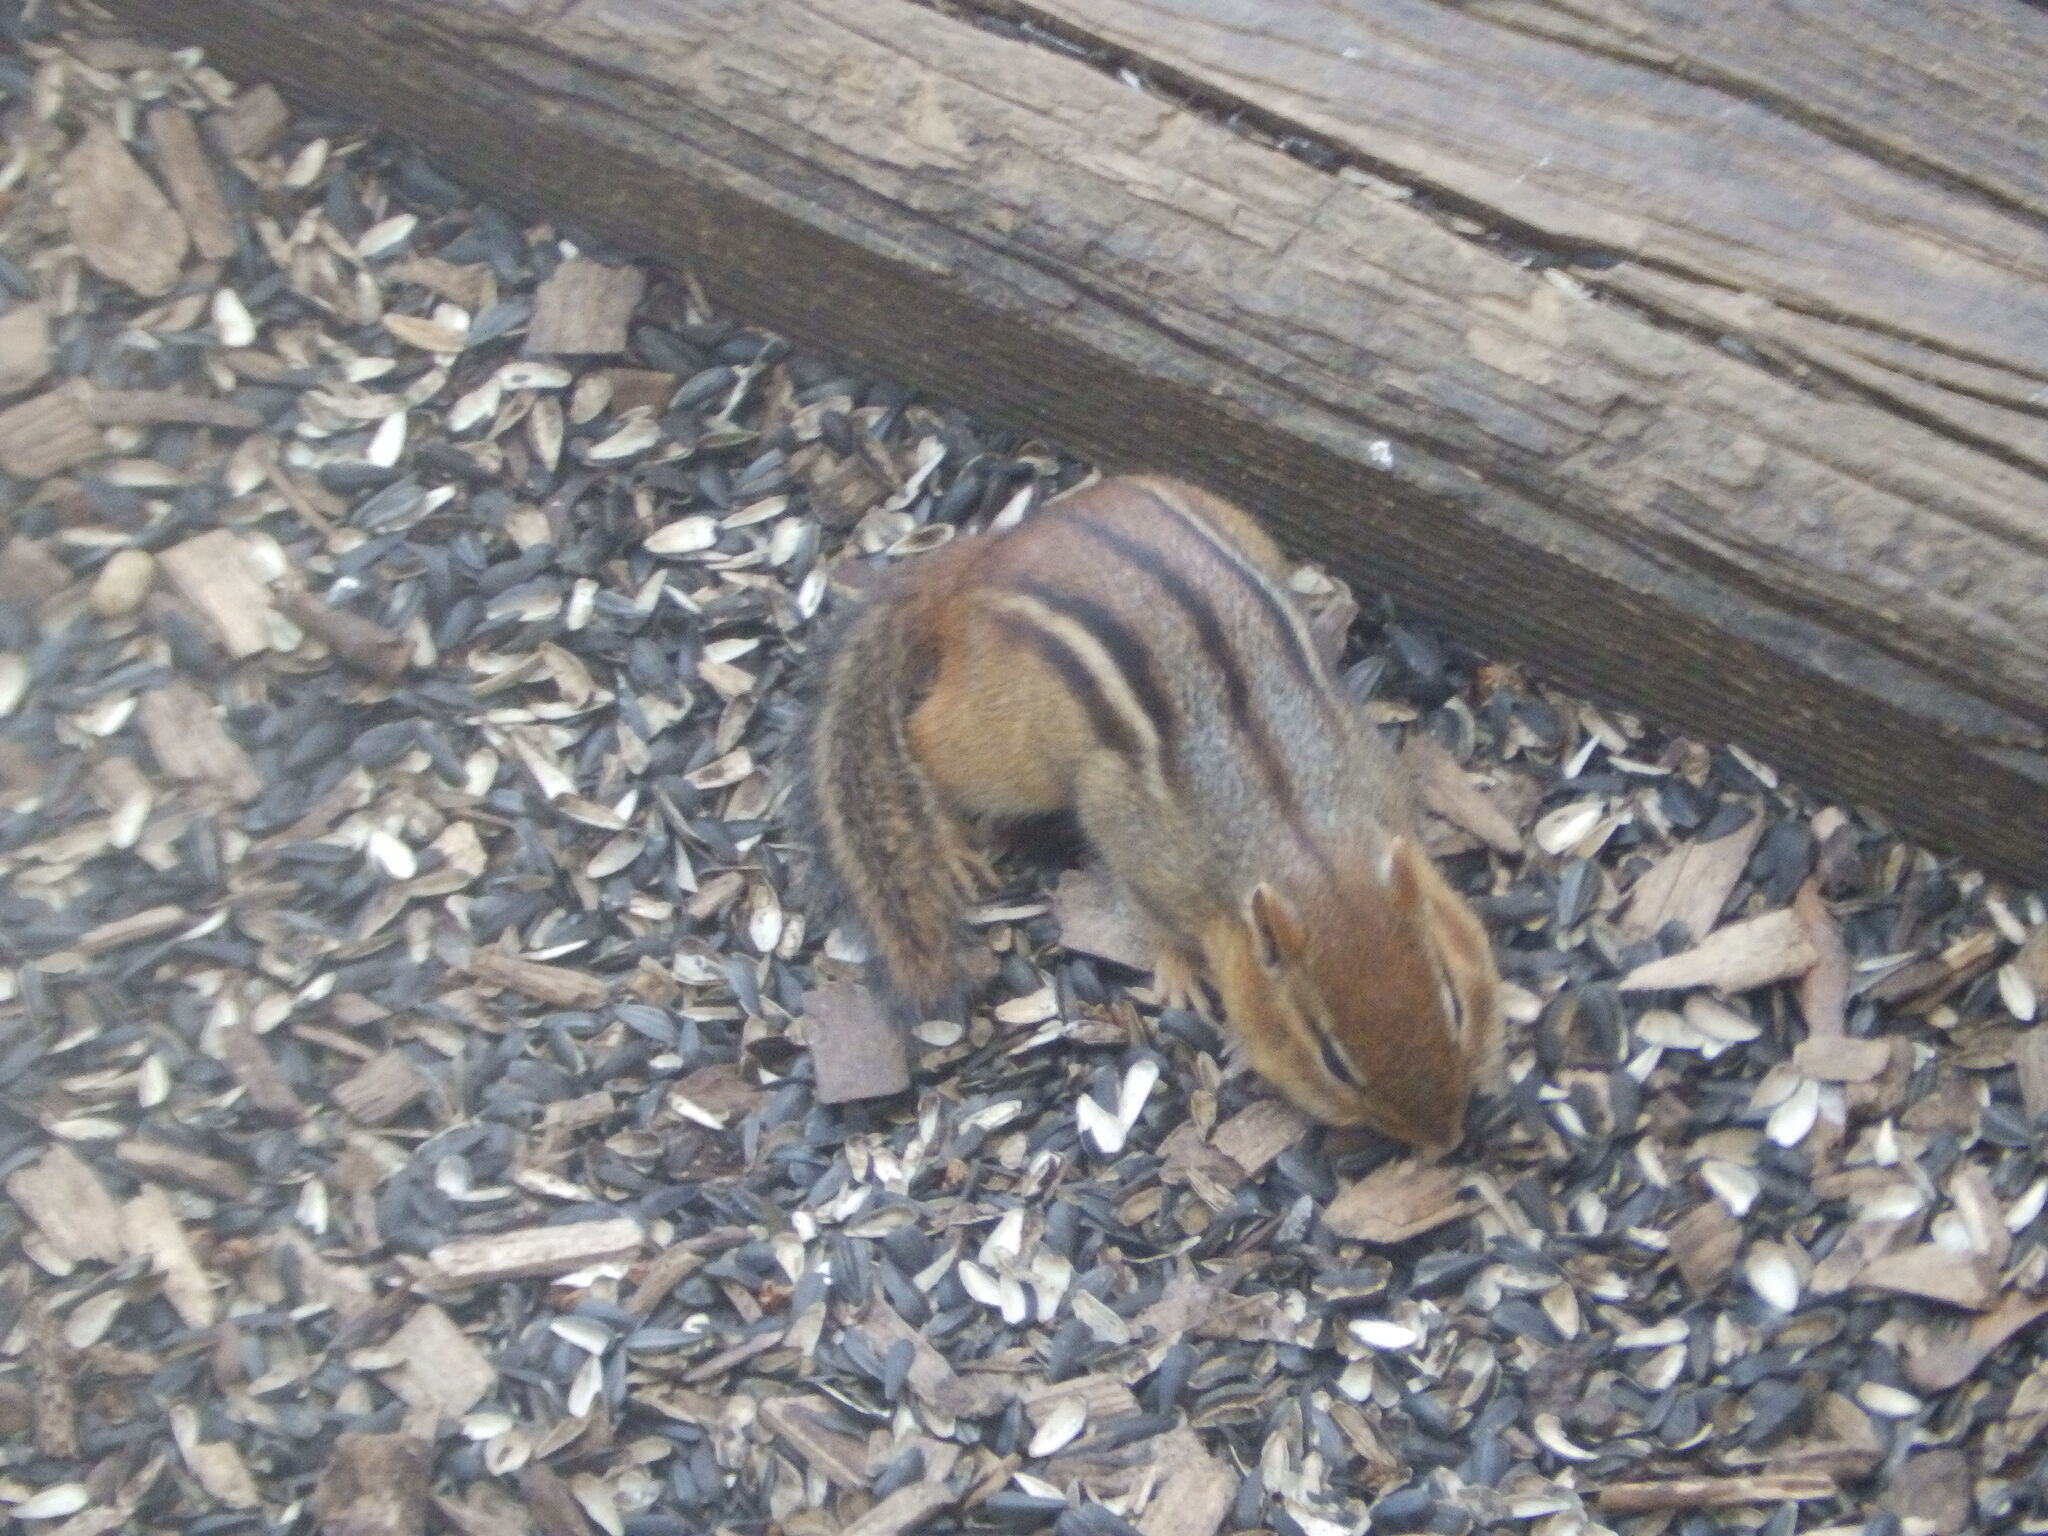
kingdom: Animalia
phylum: Chordata
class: Mammalia
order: Rodentia
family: Sciuridae
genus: Tamias
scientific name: Tamias striatus
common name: Eastern chipmunk
